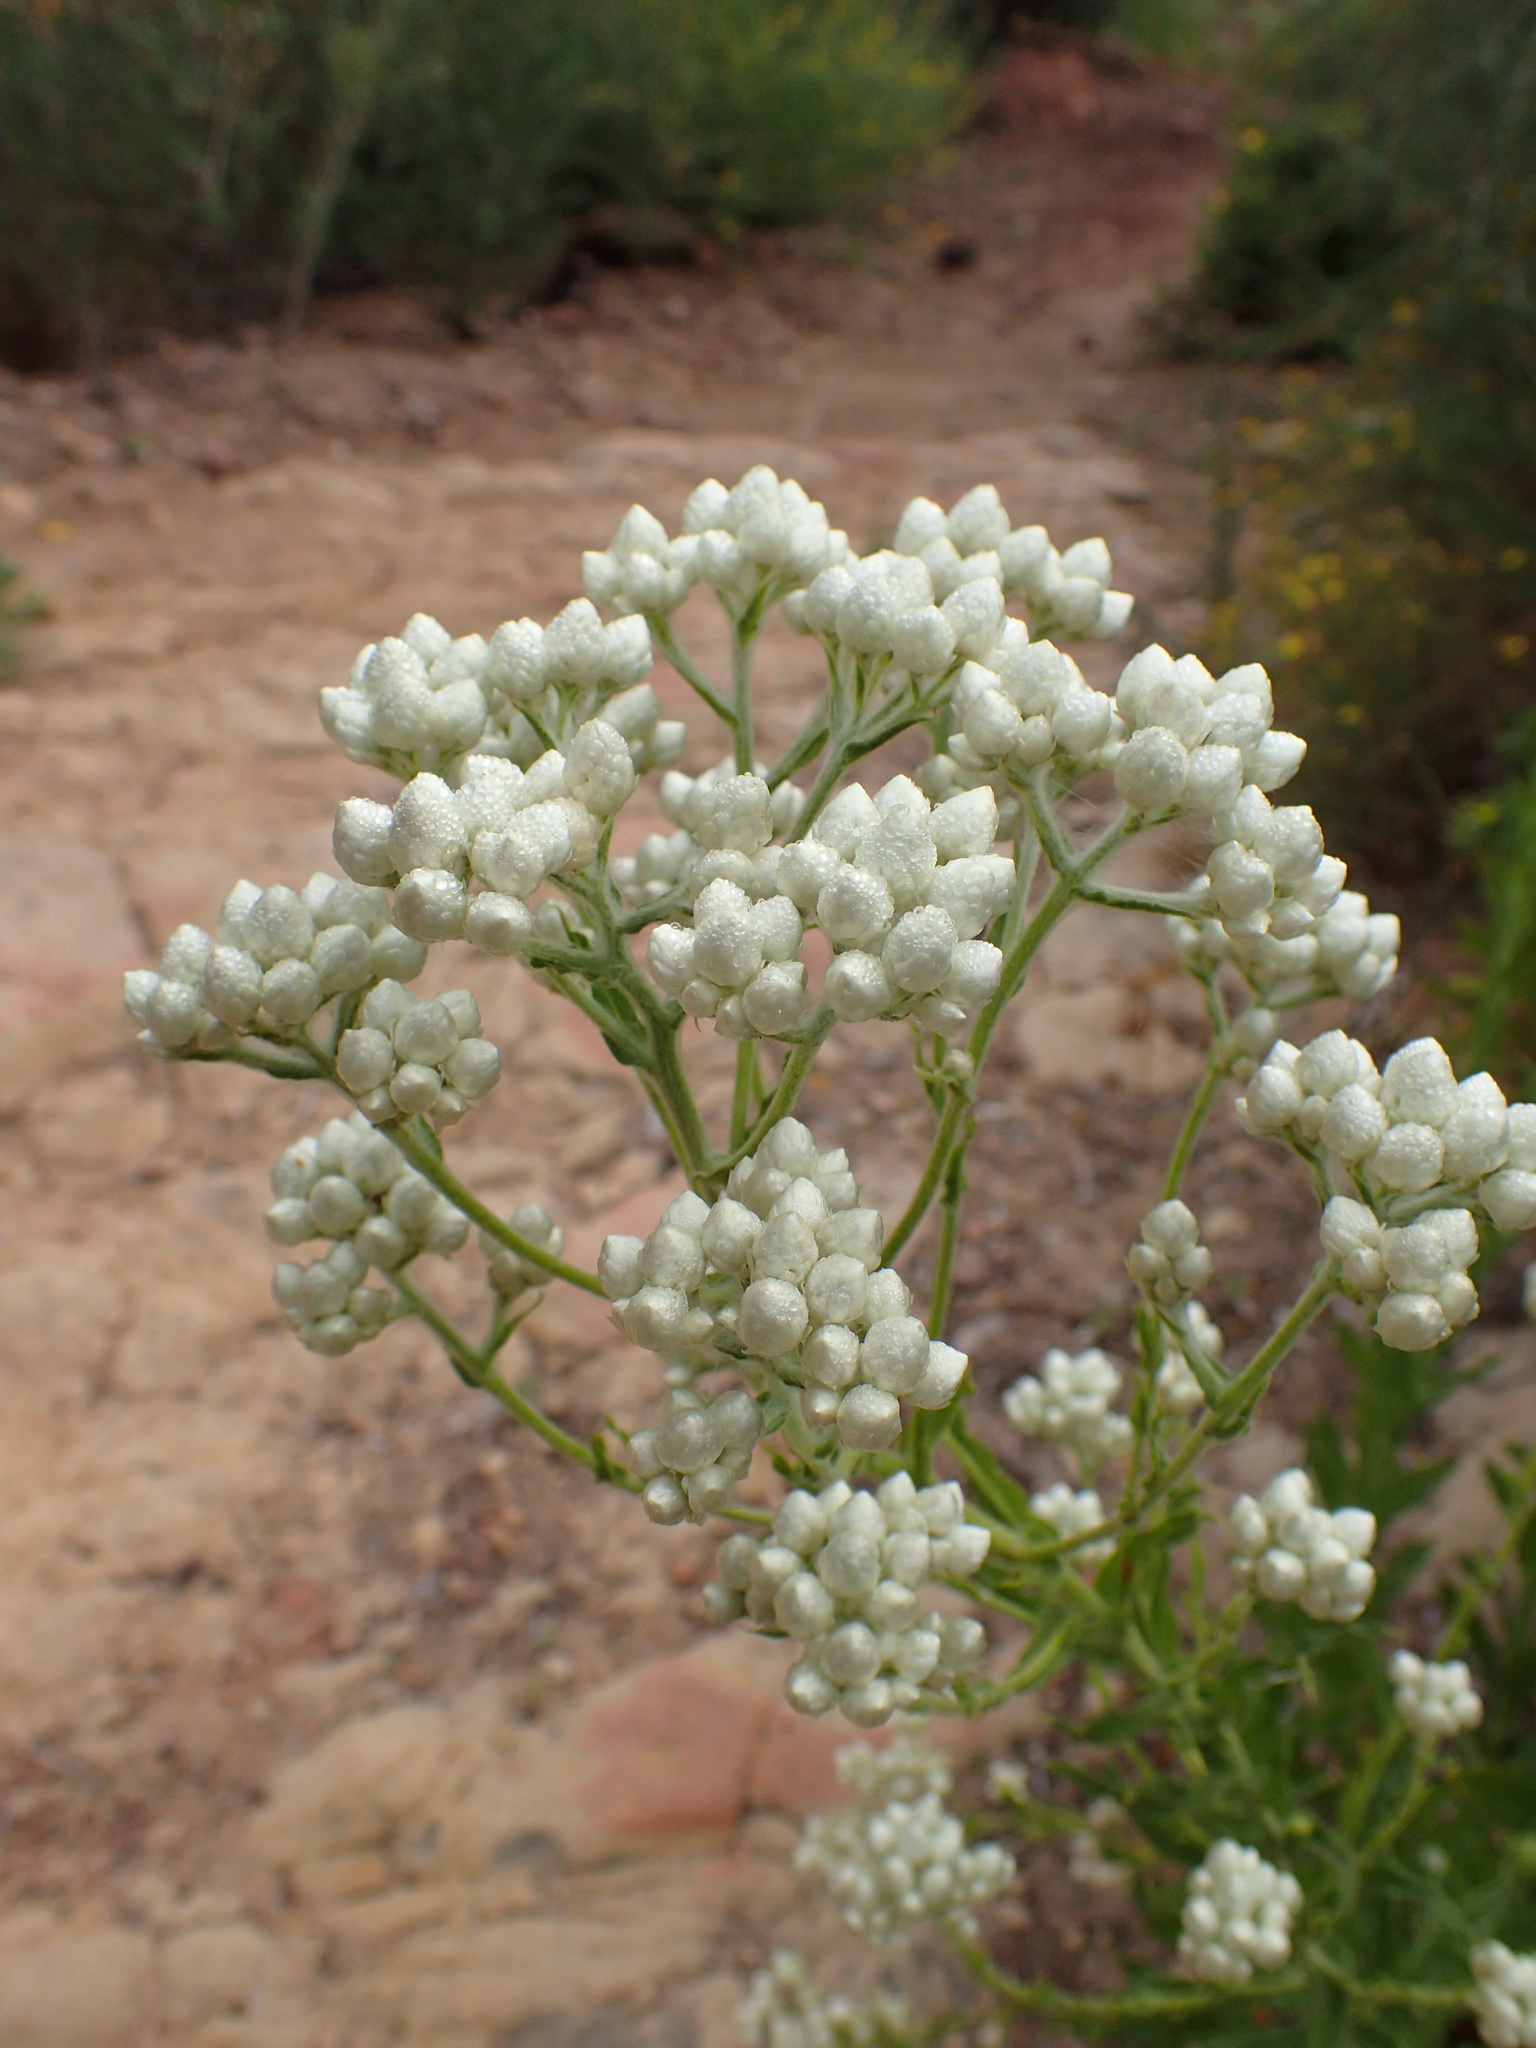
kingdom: Plantae
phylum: Tracheophyta
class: Magnoliopsida
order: Asterales
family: Asteraceae
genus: Pseudognaphalium
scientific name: Pseudognaphalium californicum
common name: California rabbit-tobacco
